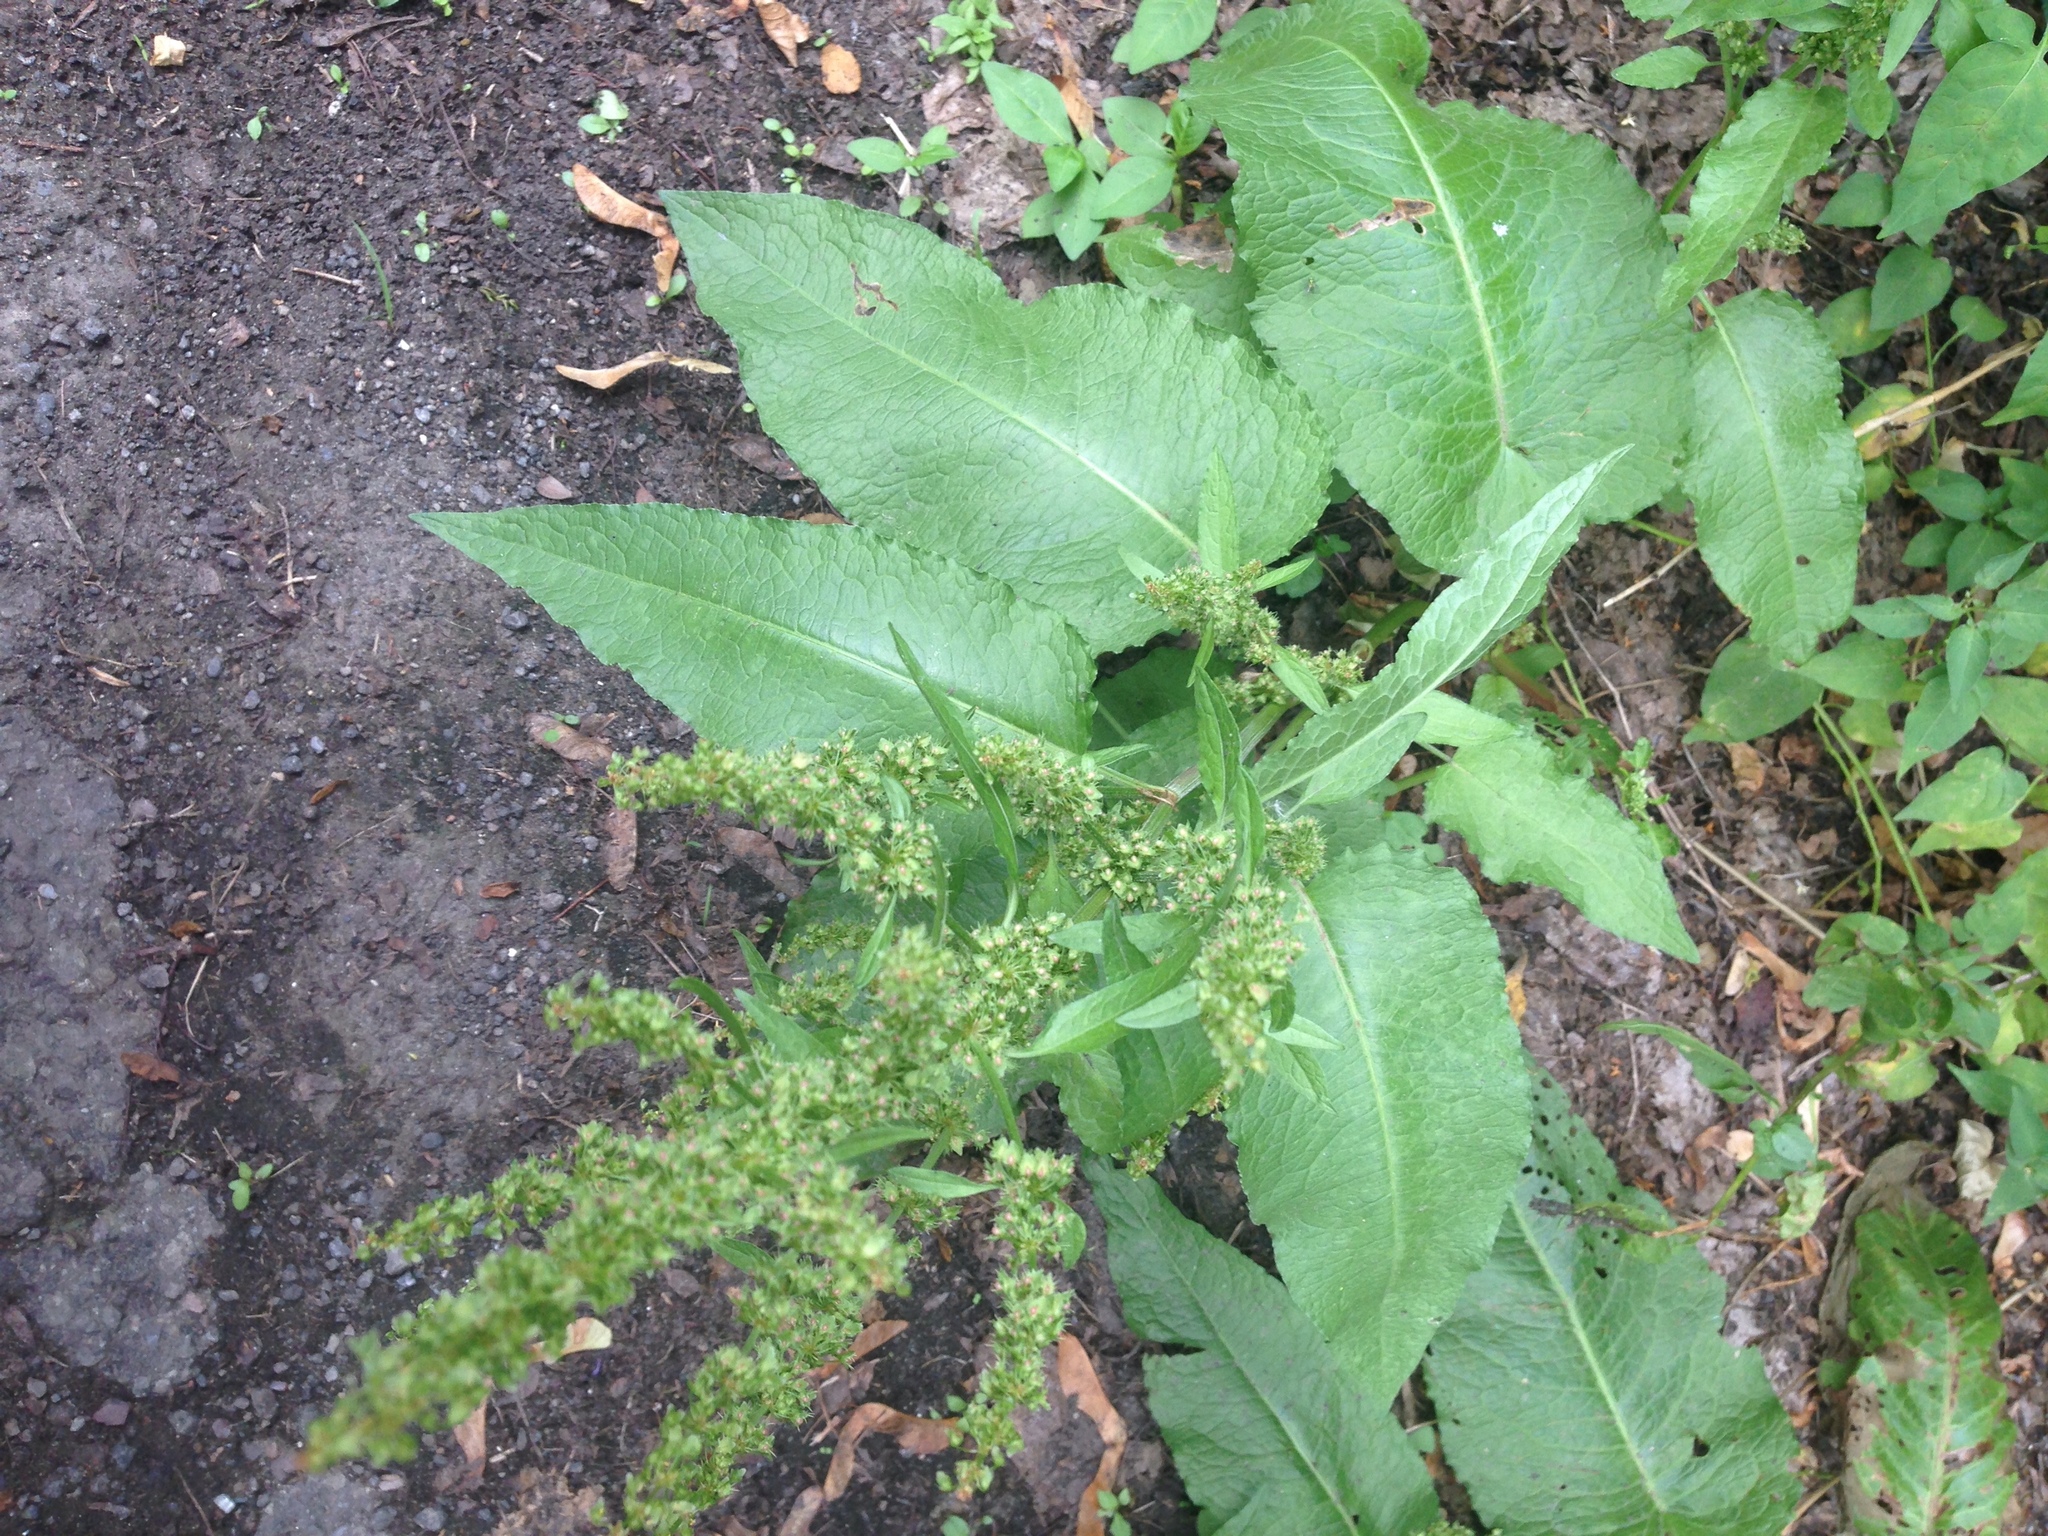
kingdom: Plantae
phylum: Tracheophyta
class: Magnoliopsida
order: Caryophyllales
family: Polygonaceae
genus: Rumex
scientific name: Rumex obtusifolius
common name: Bitter dock
